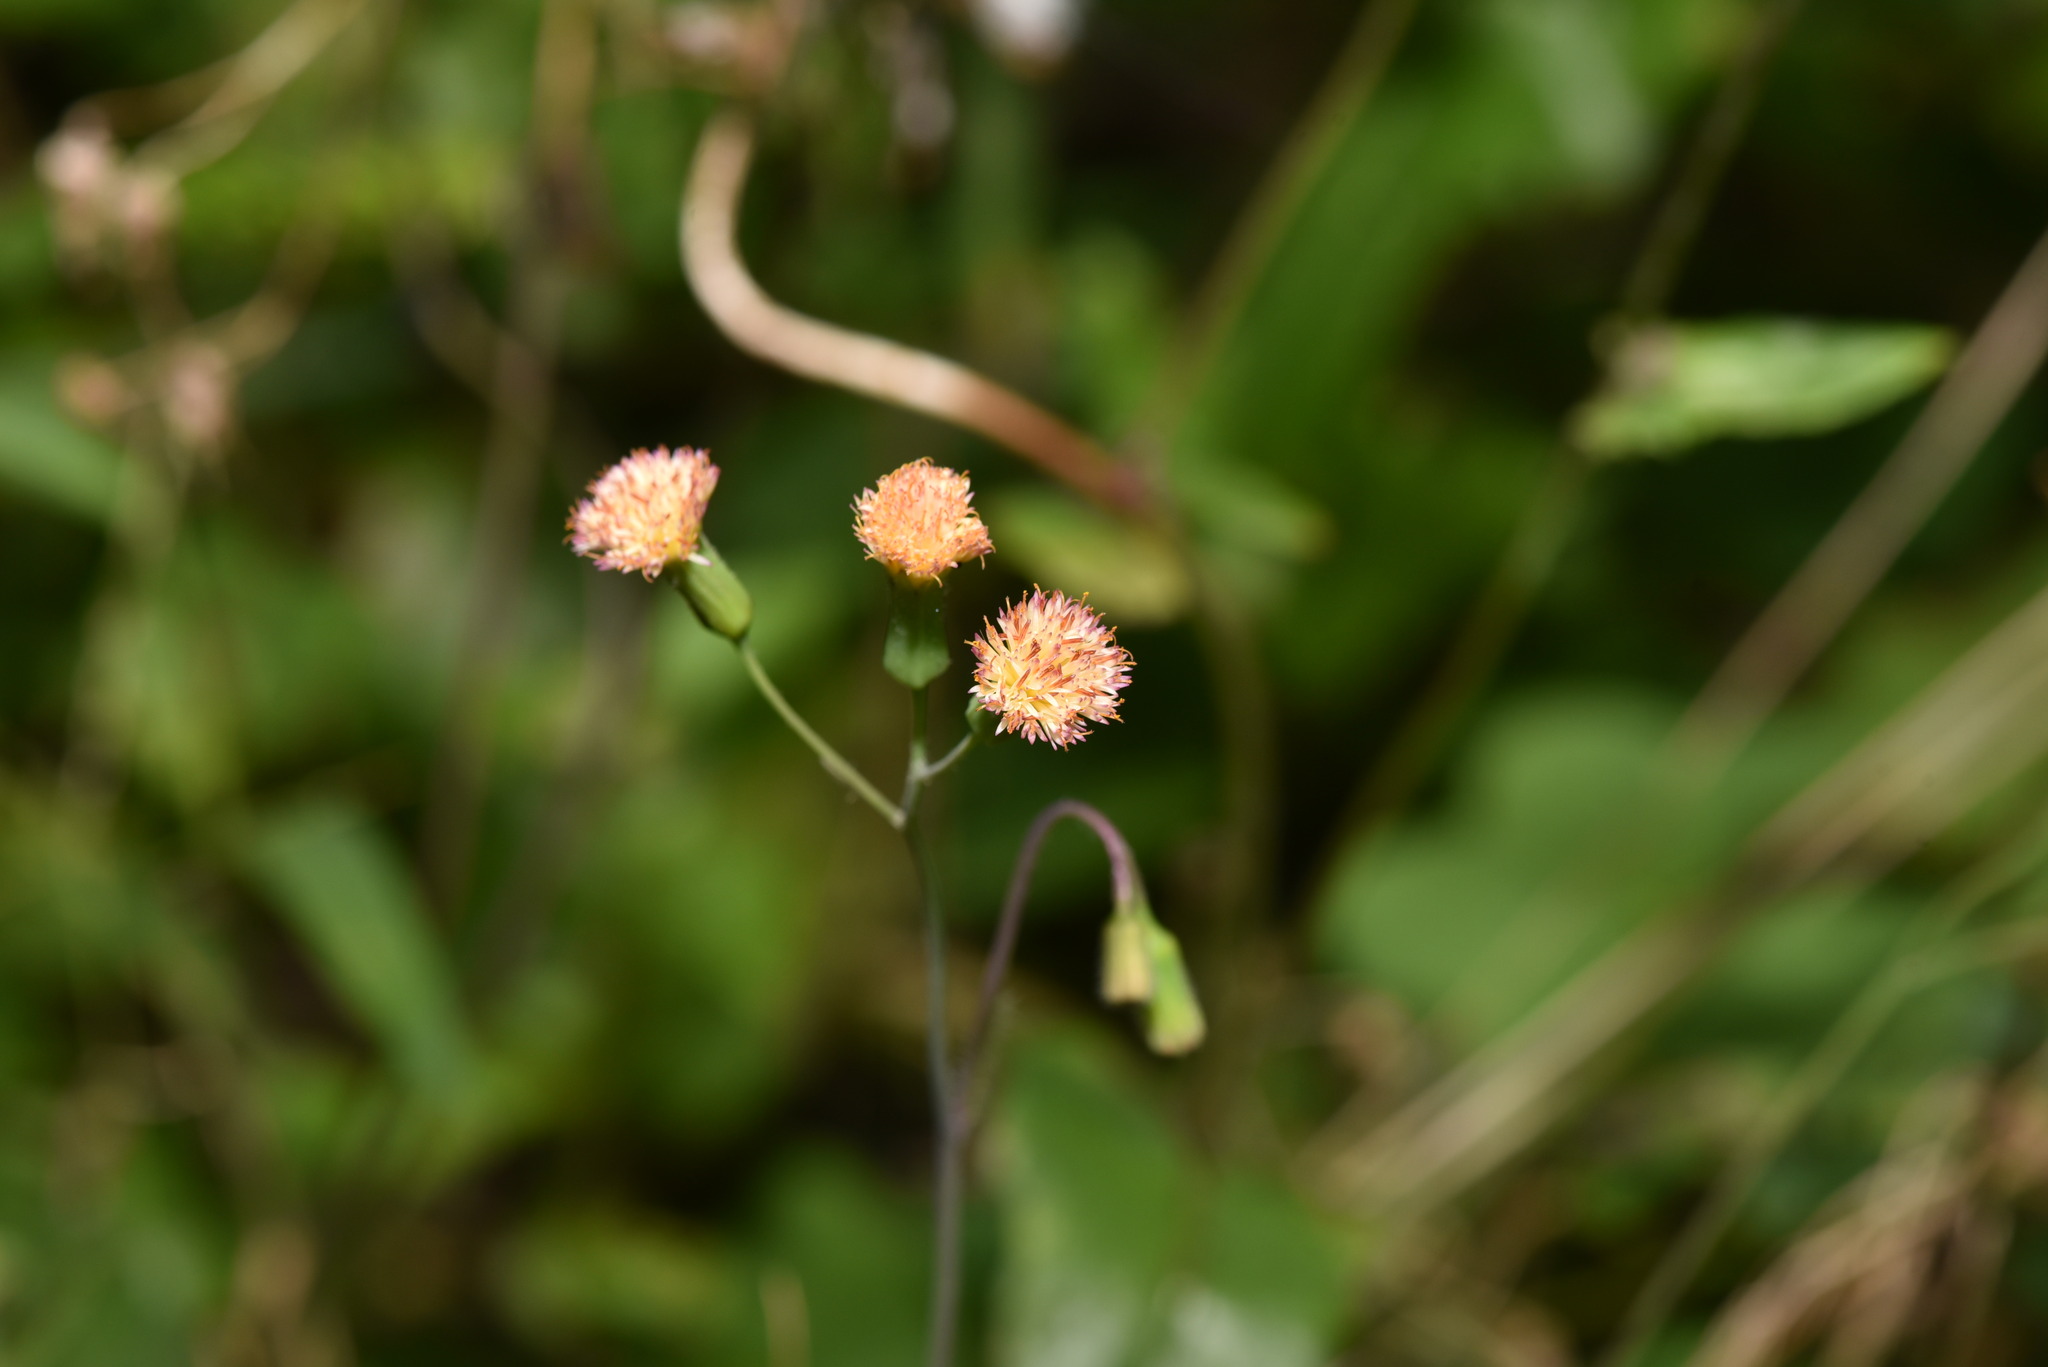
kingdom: Plantae
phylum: Tracheophyta
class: Magnoliopsida
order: Asterales
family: Asteraceae
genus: Emilia
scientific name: Emilia praetermissa
